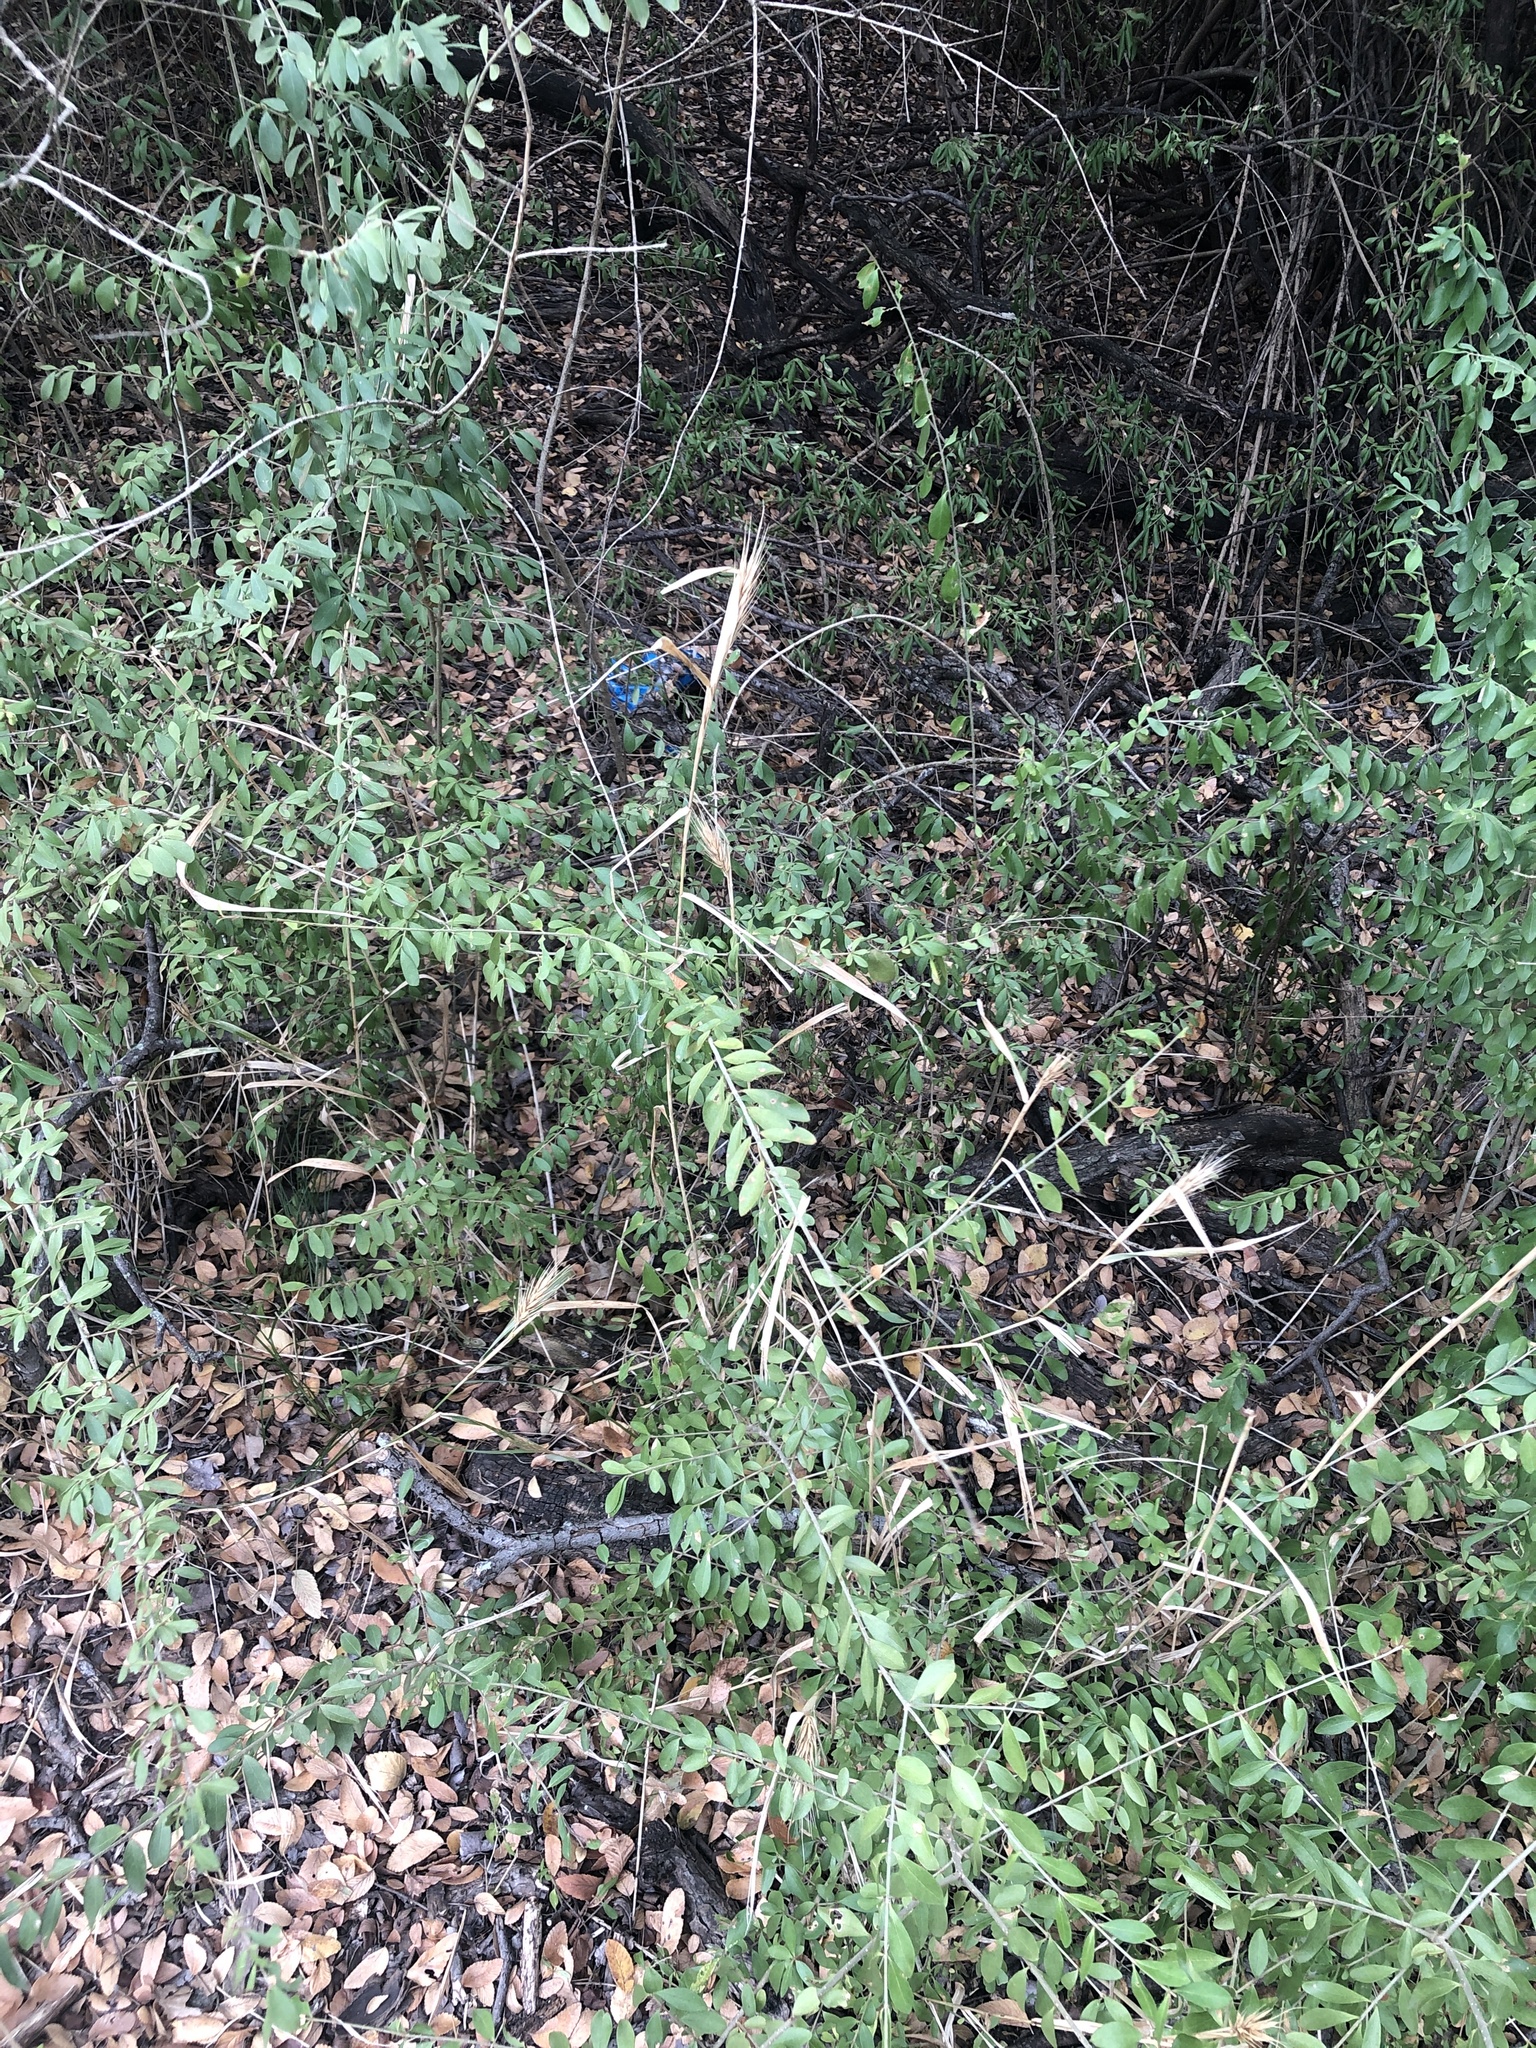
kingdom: Plantae
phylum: Tracheophyta
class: Liliopsida
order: Poales
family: Poaceae
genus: Elymus
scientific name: Elymus virginicus
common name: Common eastern wildrye
